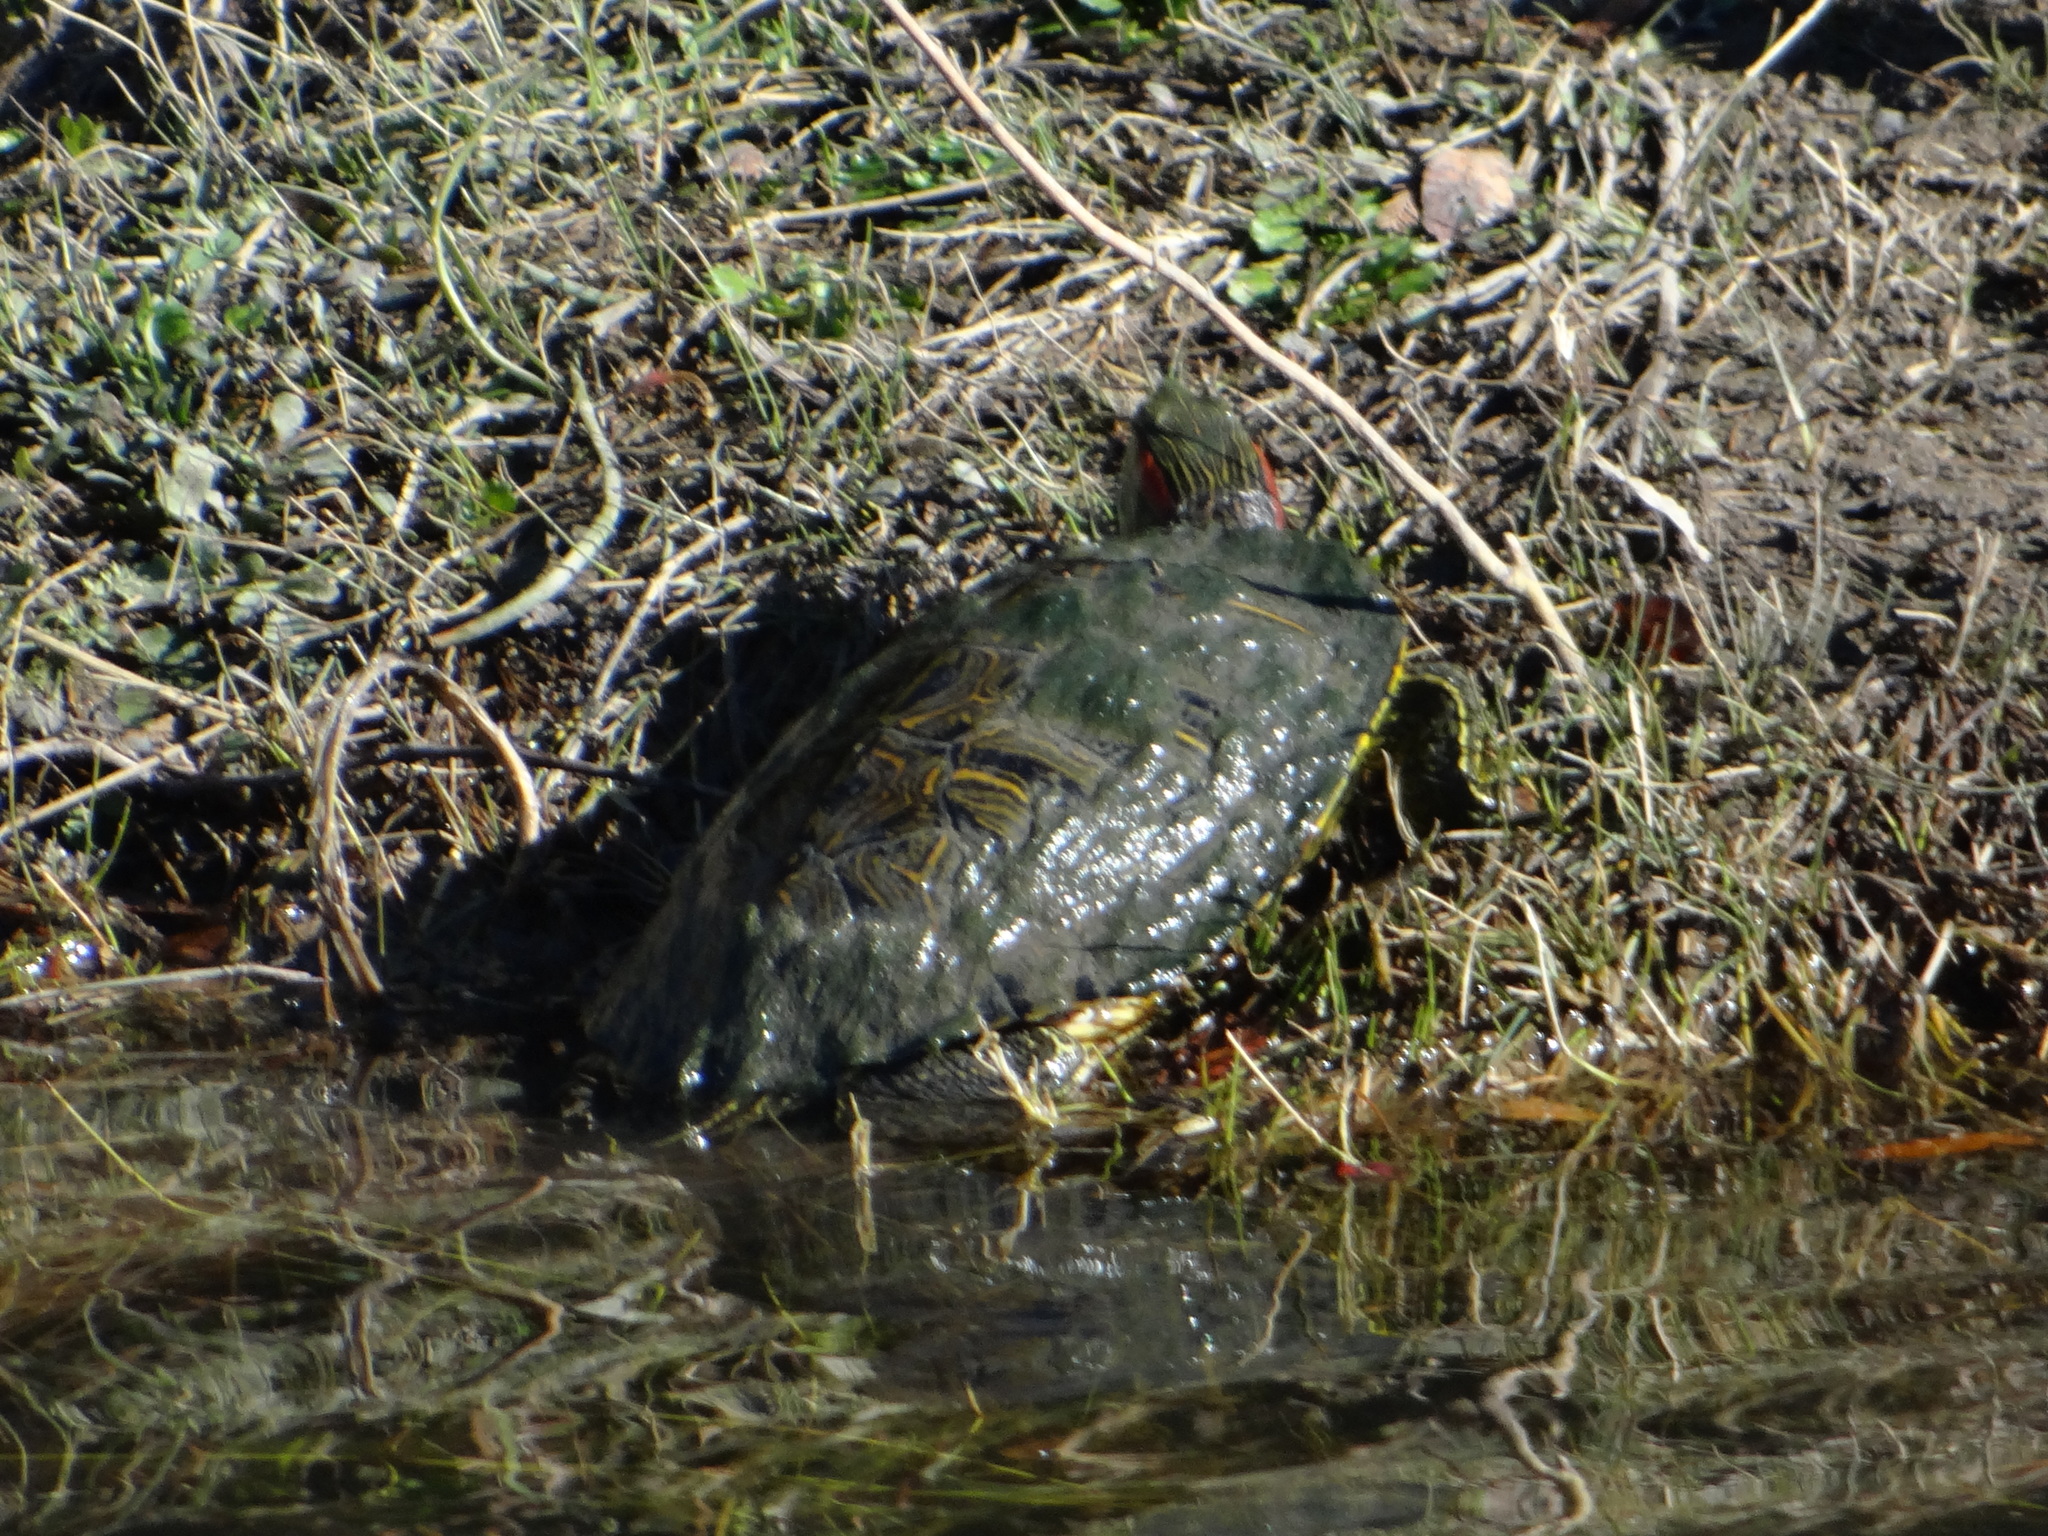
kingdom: Animalia
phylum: Chordata
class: Testudines
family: Emydidae
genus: Trachemys
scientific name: Trachemys scripta
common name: Slider
